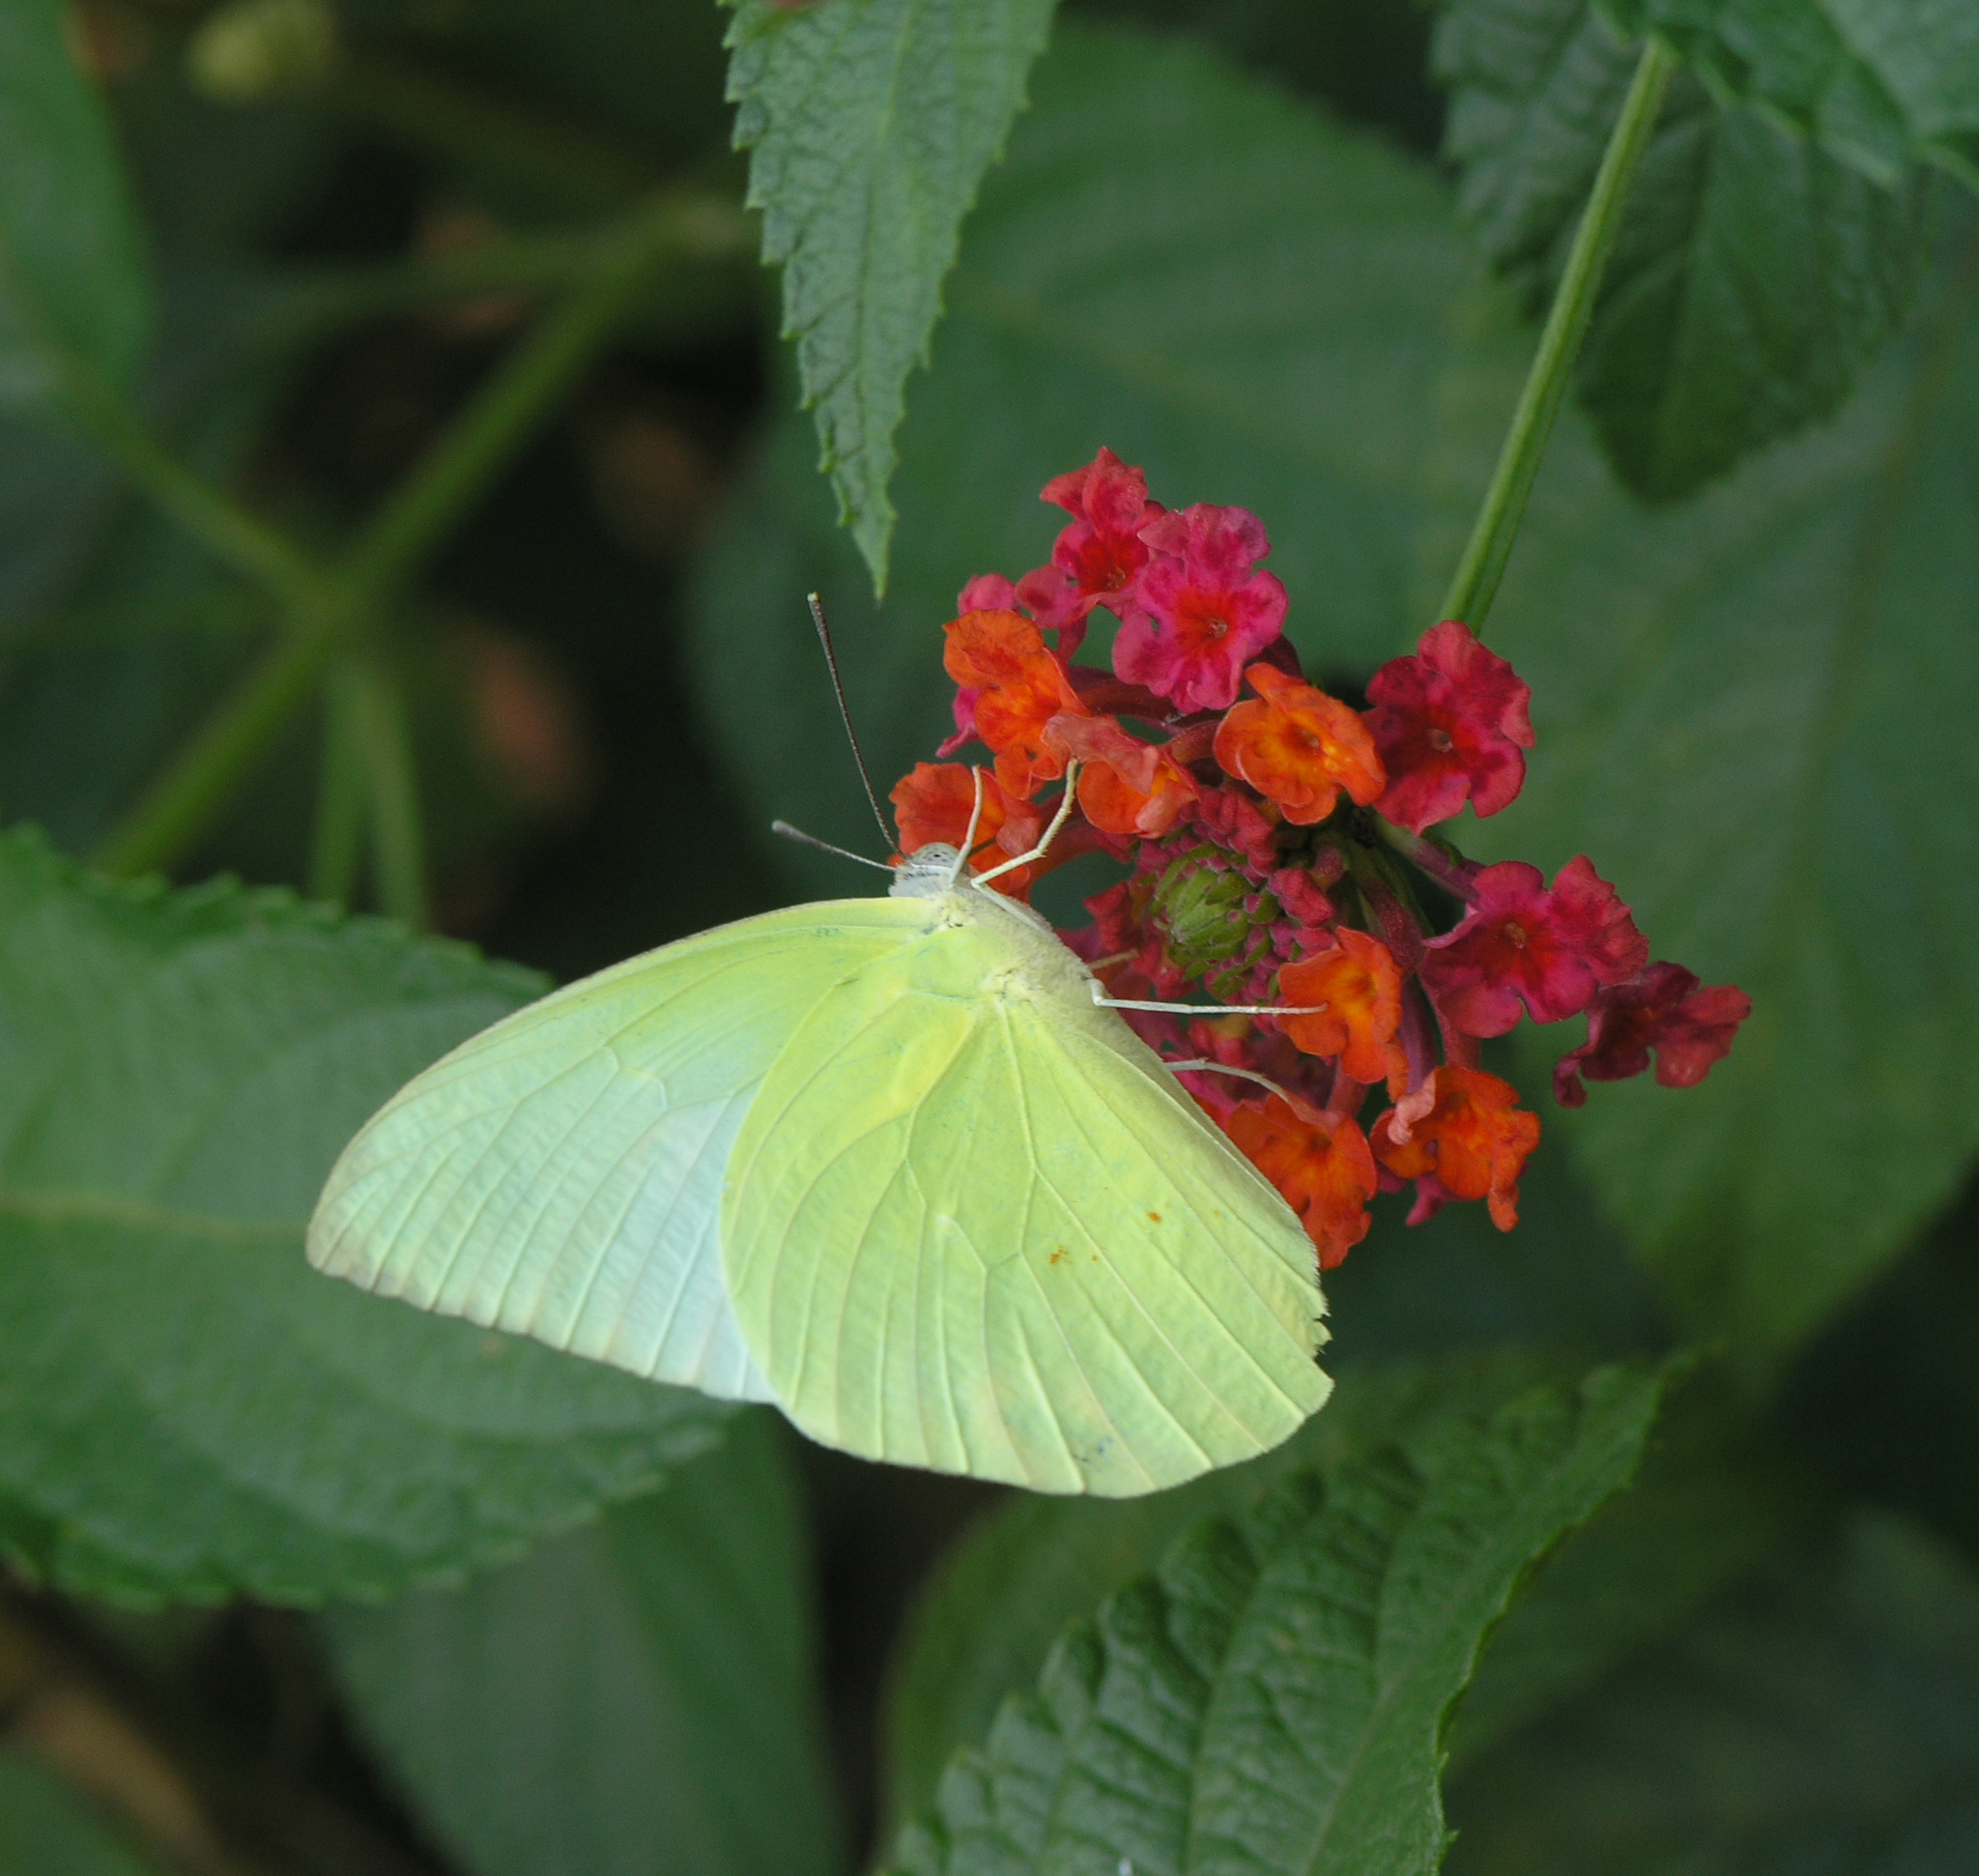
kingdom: Animalia
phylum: Arthropoda
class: Insecta
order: Lepidoptera
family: Pieridae
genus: Catopsilia
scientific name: Catopsilia pomona
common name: Common emigrant
